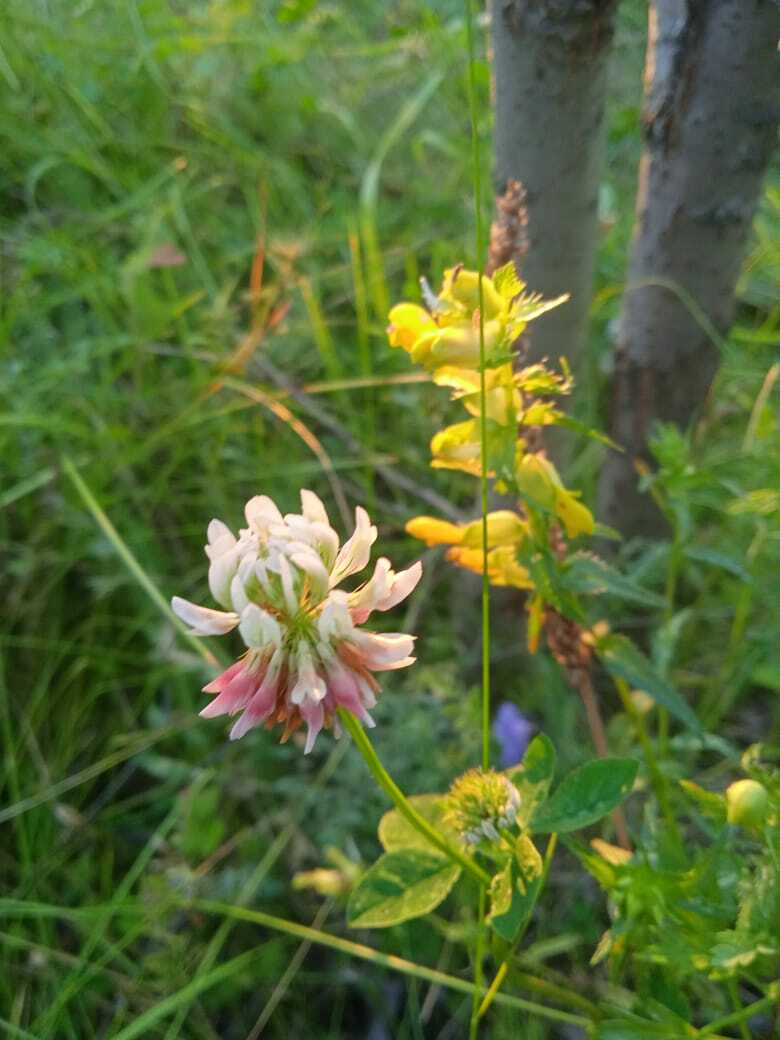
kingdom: Plantae
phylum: Tracheophyta
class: Magnoliopsida
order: Fabales
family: Fabaceae
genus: Trifolium
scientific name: Trifolium hybridum
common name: Alsike clover
